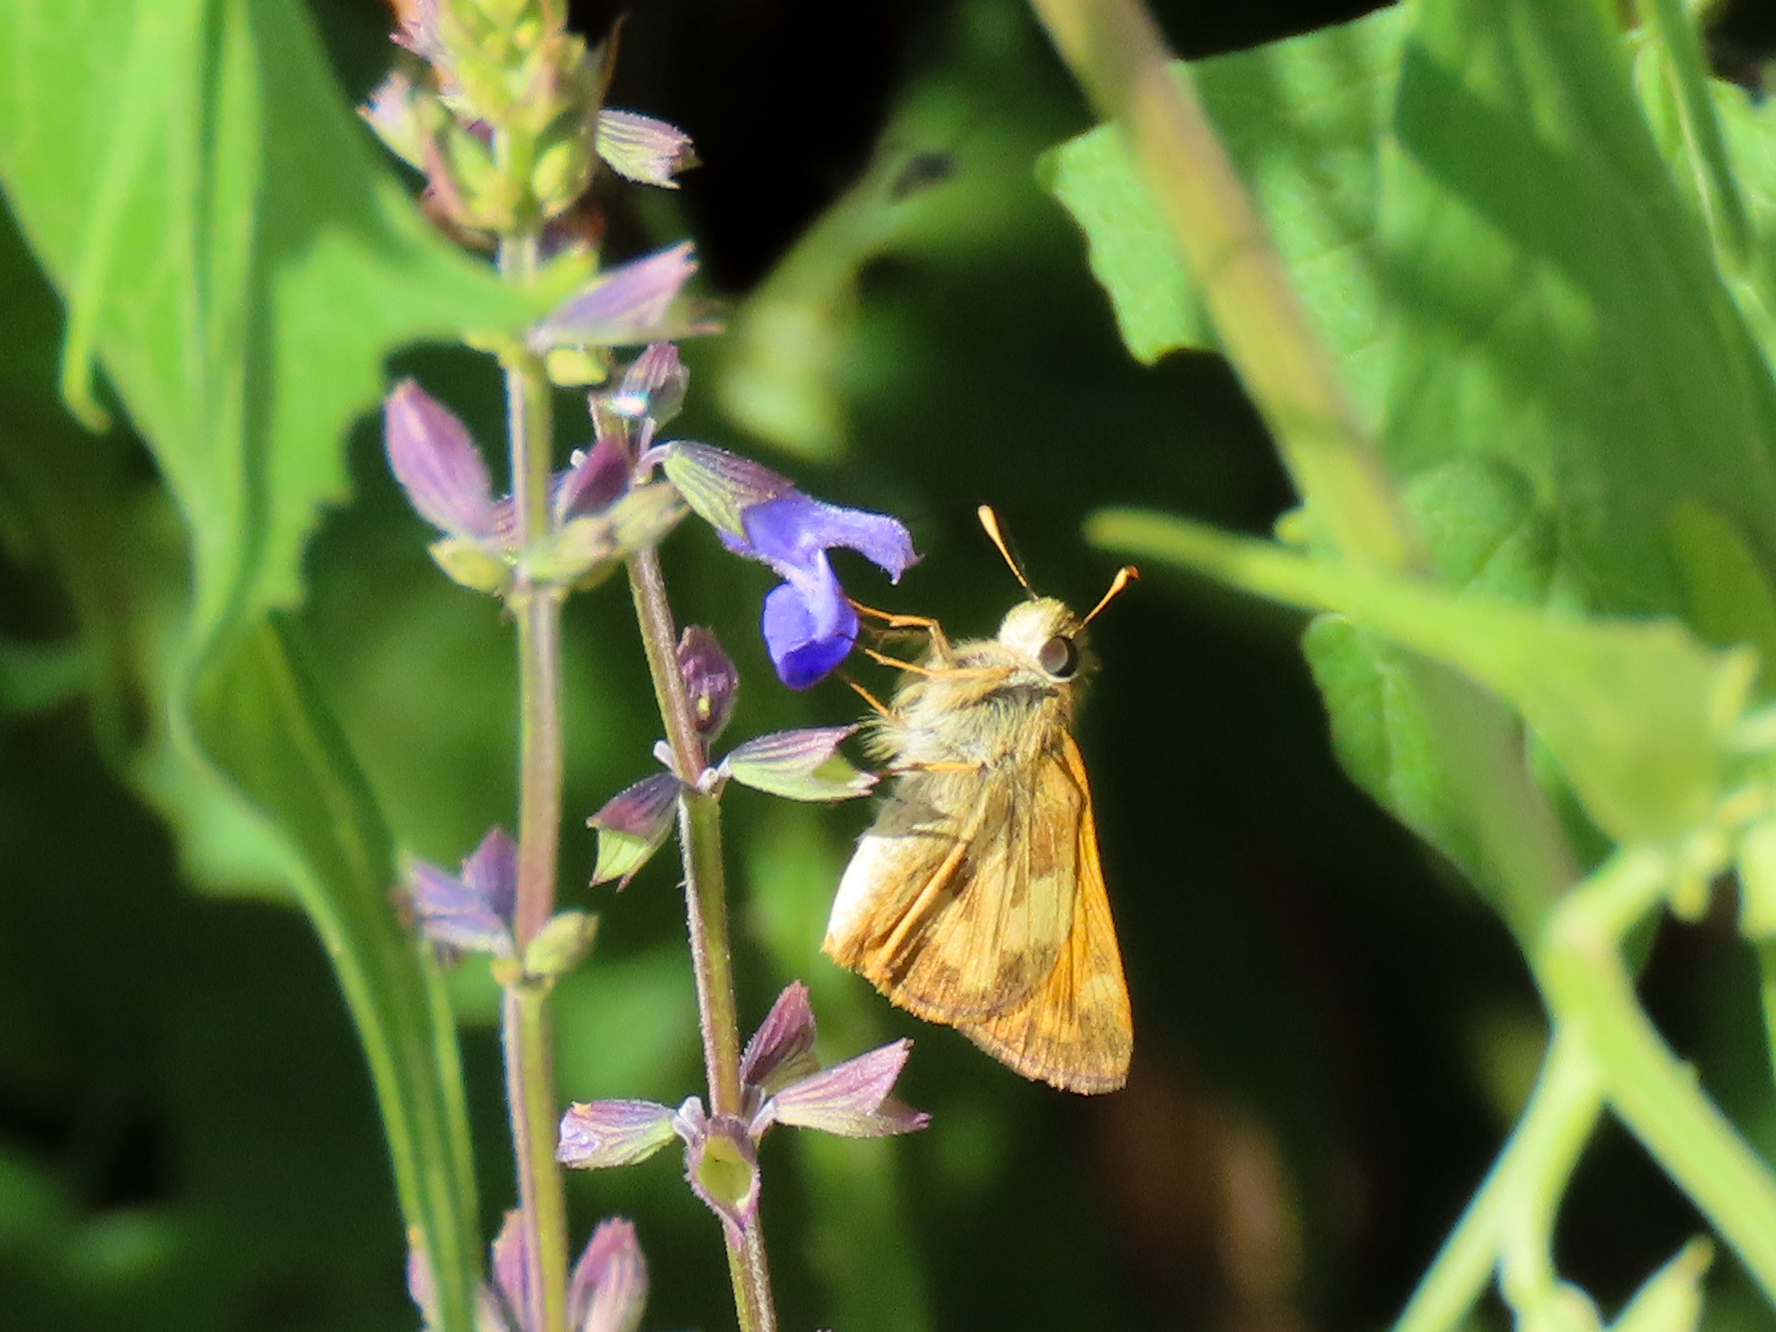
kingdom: Animalia
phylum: Arthropoda
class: Insecta
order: Lepidoptera
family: Hesperiidae
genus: Lon
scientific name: Lon taxiles
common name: Taxiles skipper
